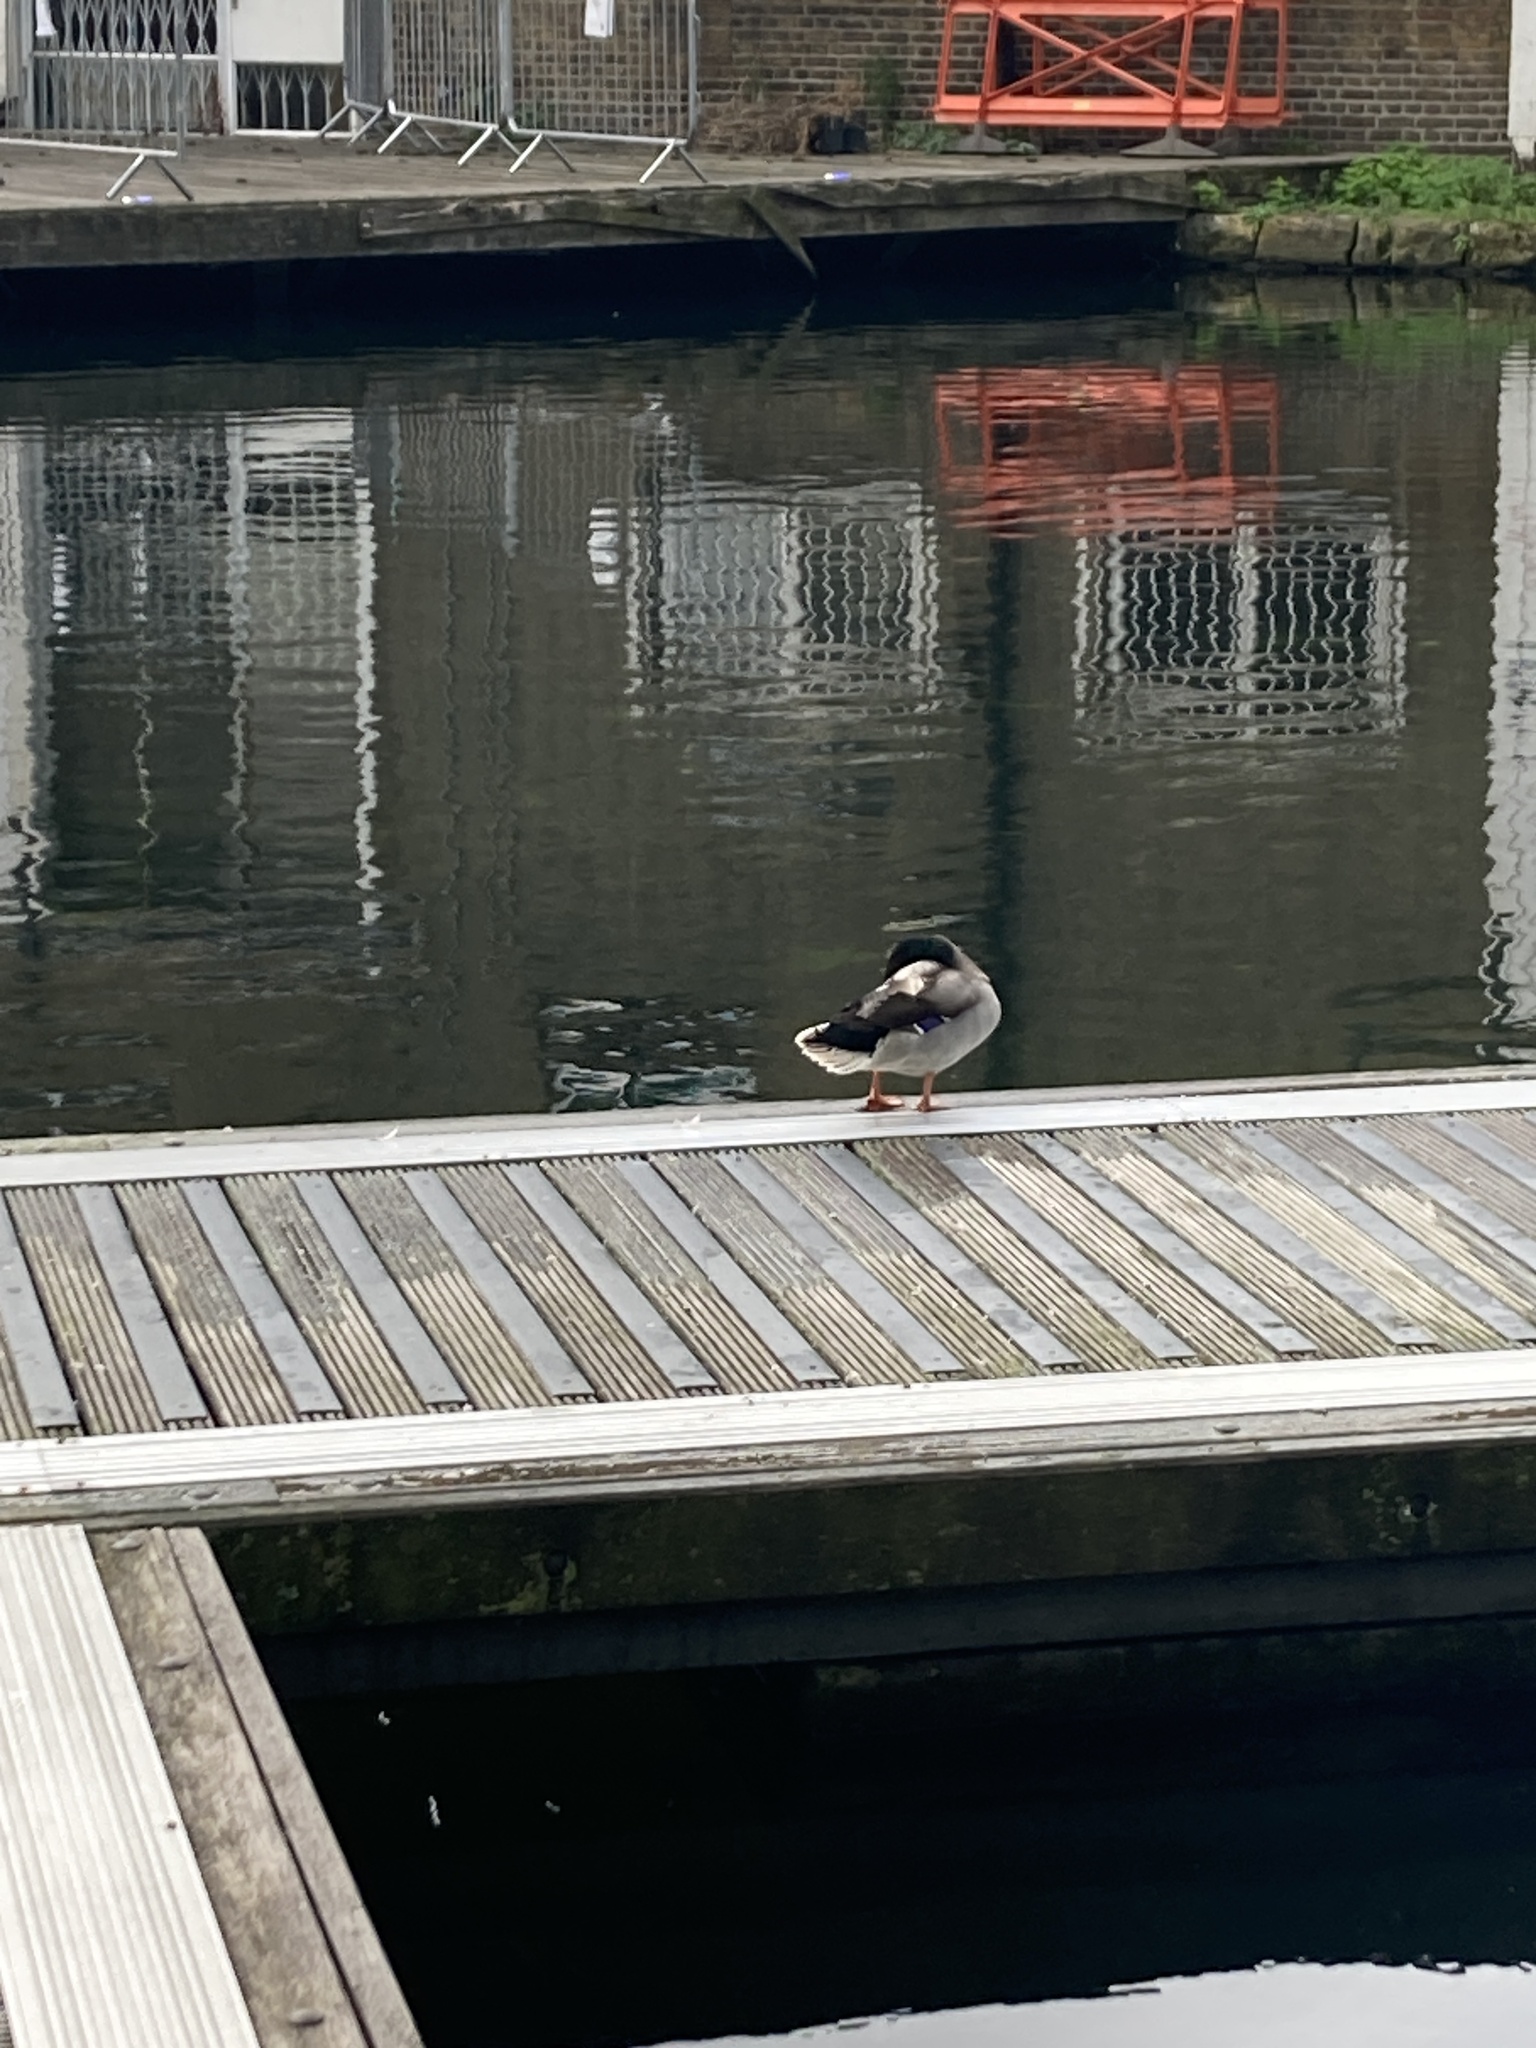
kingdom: Animalia
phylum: Chordata
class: Aves
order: Anseriformes
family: Anatidae
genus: Anas
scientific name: Anas platyrhynchos
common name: Mallard
